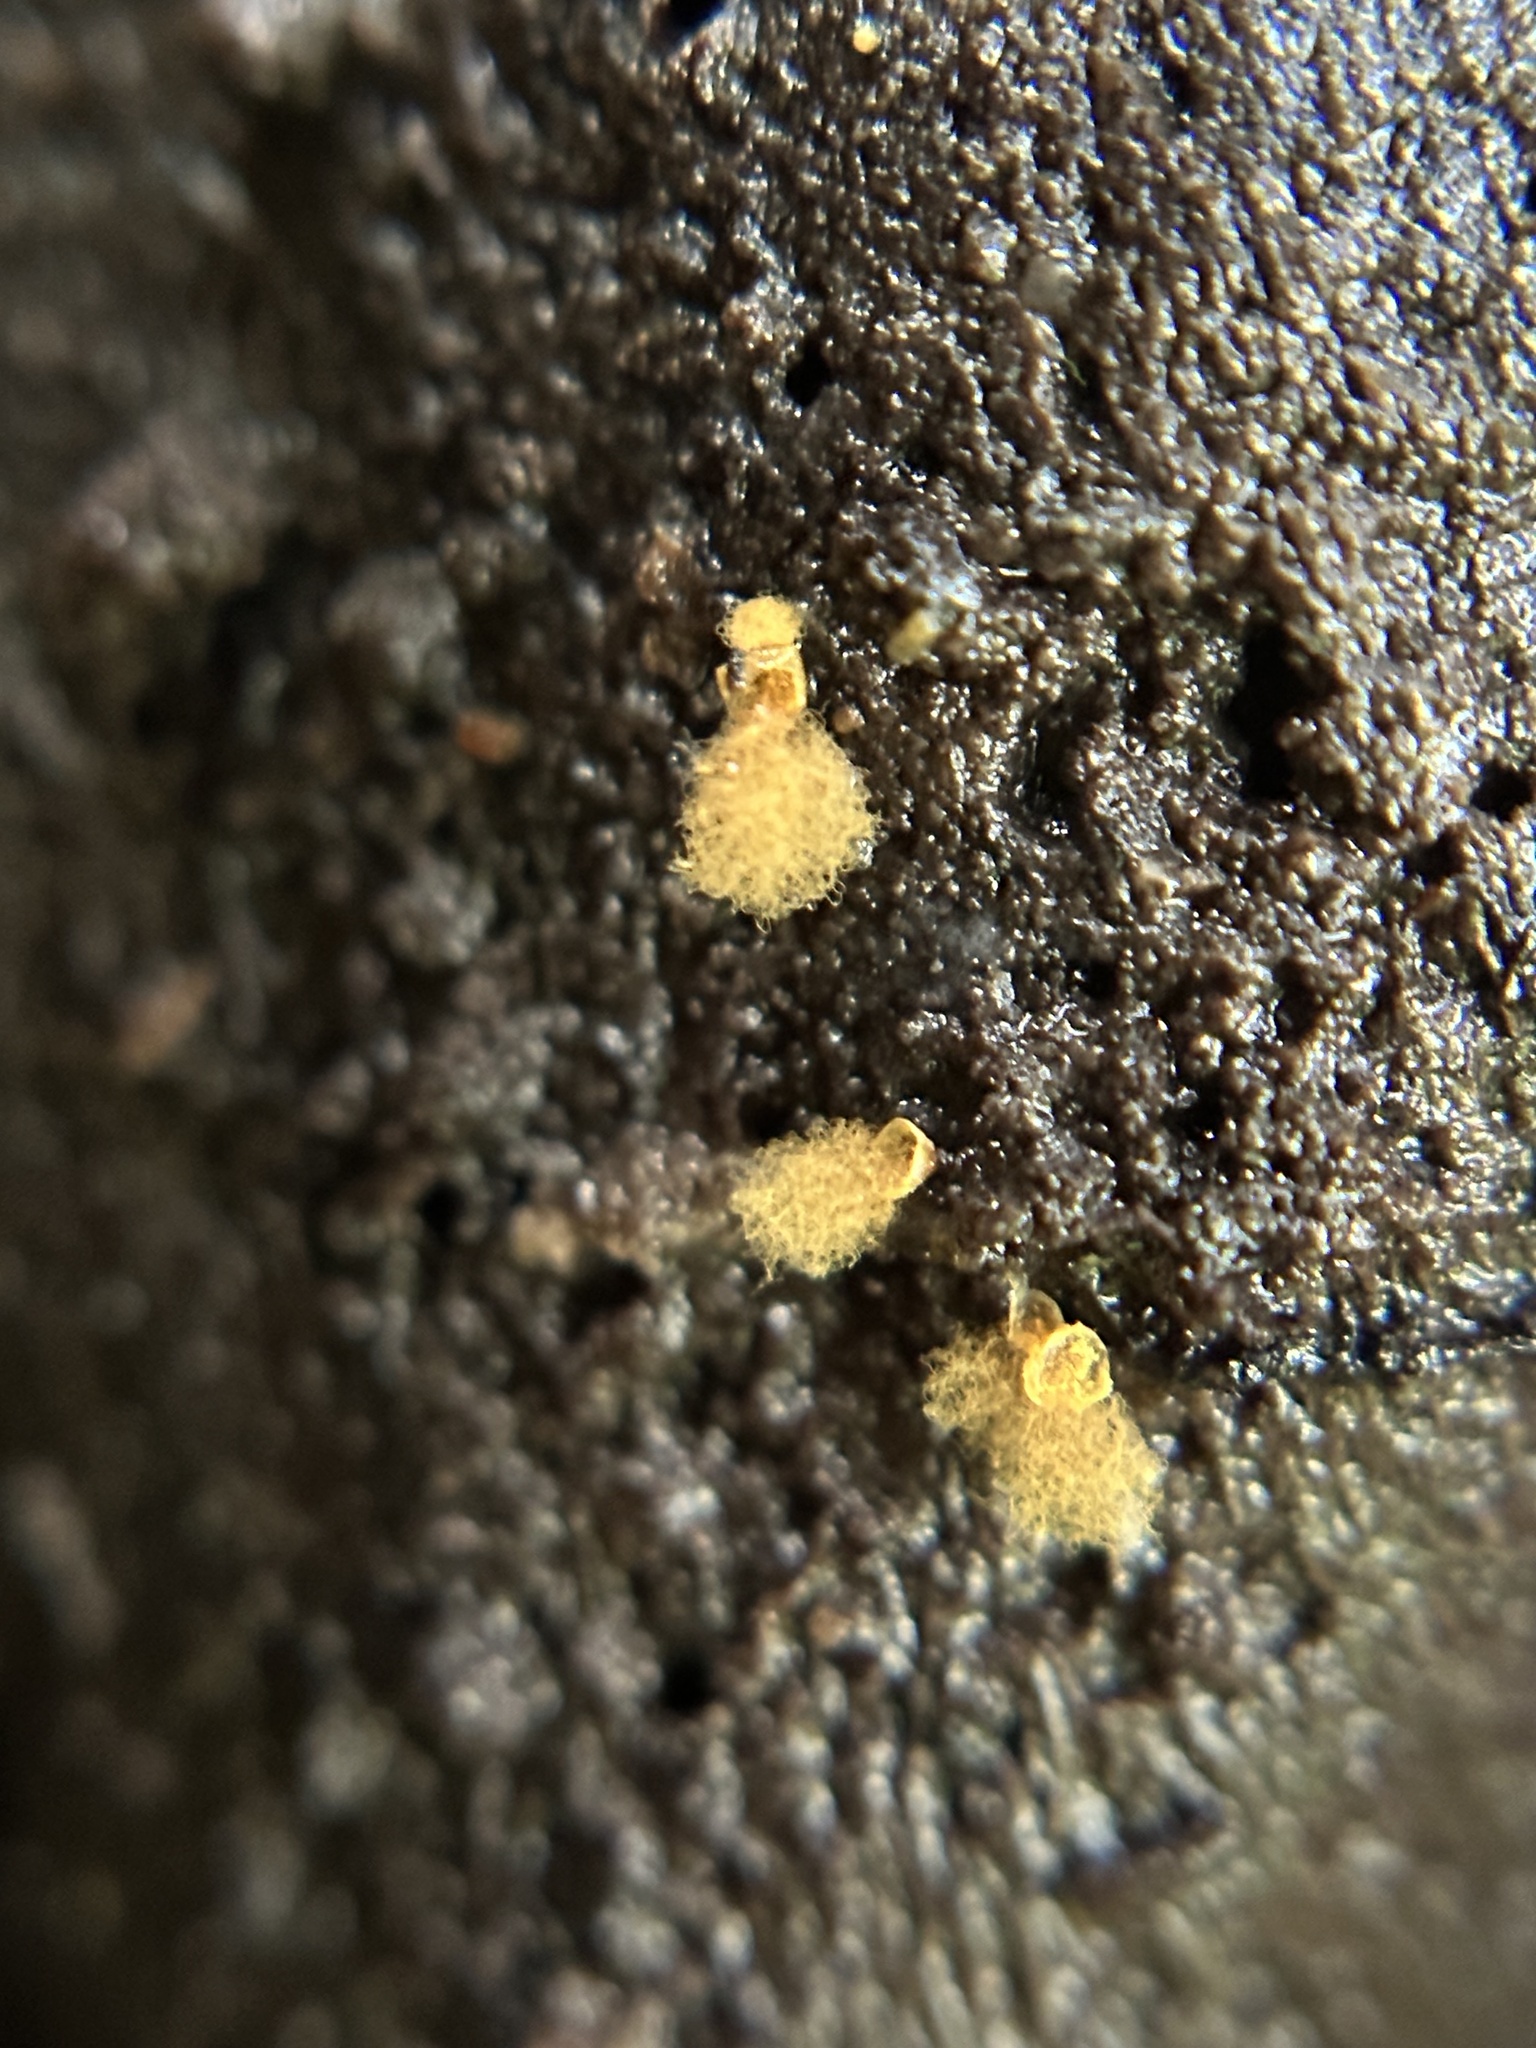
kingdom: Protozoa
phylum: Mycetozoa
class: Myxomycetes
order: Trichiales
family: Arcyriaceae
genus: Hemitrichia
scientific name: Hemitrichia calyculata
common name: Push pin slime mold
